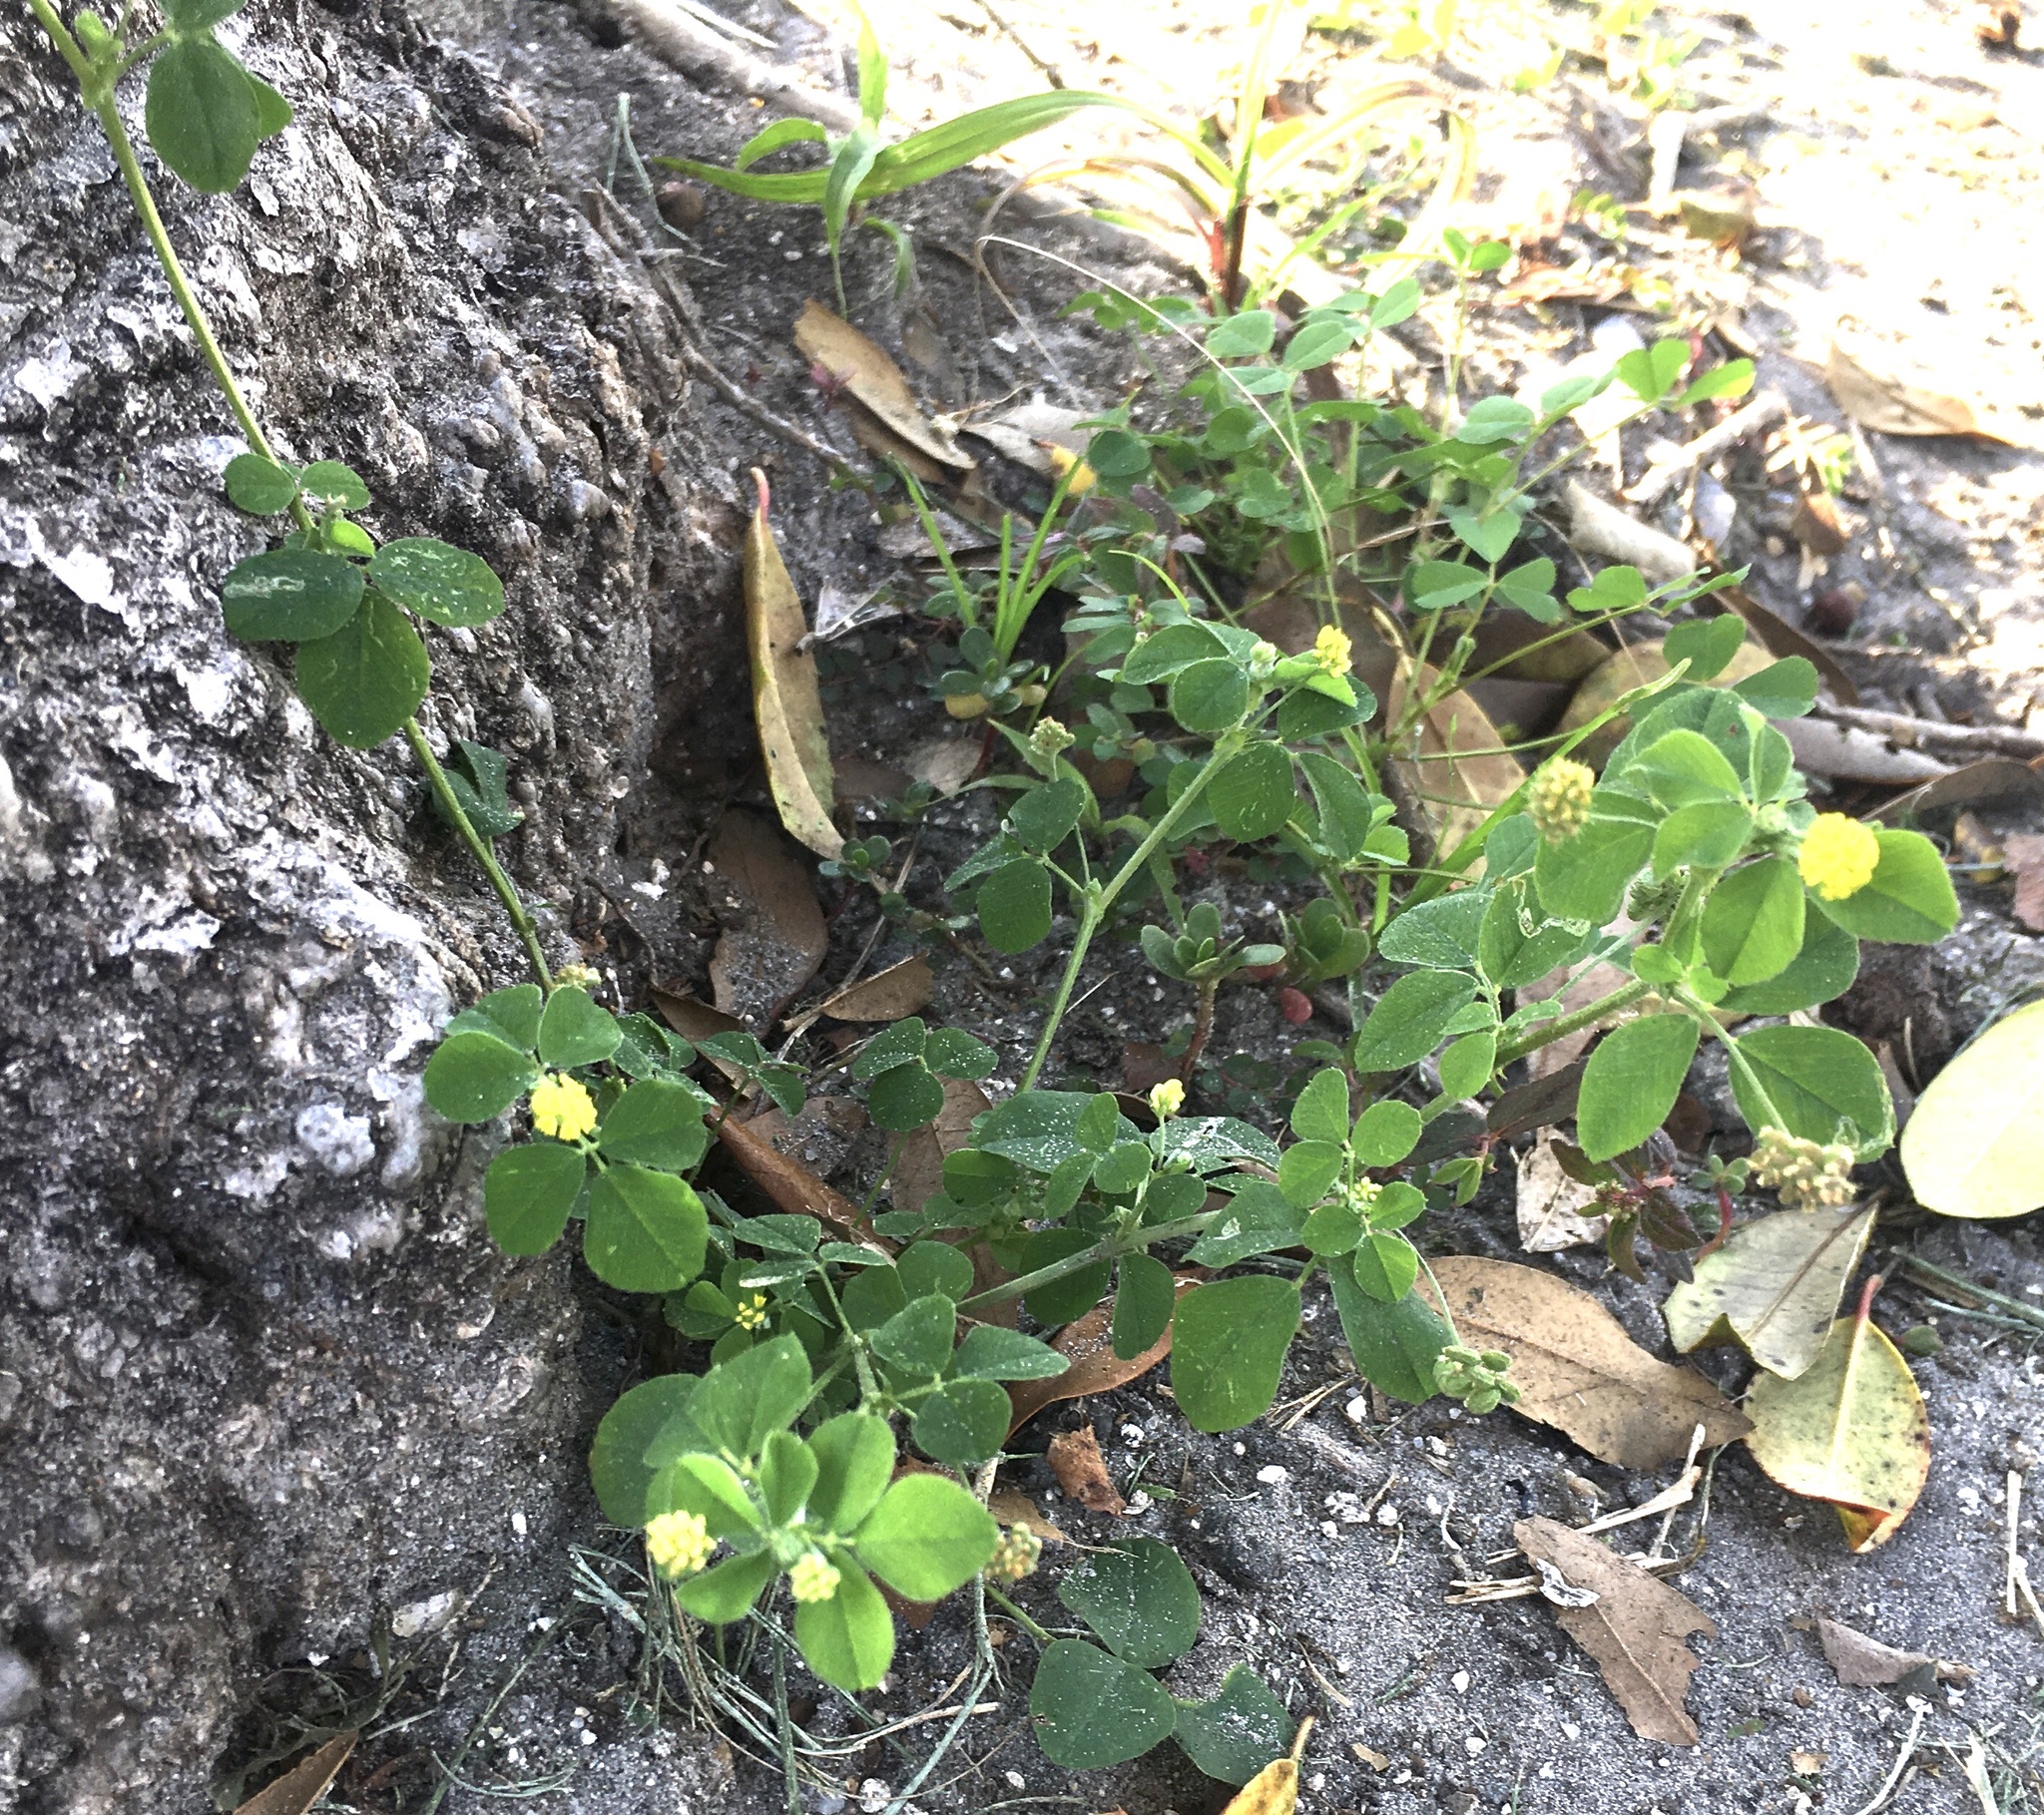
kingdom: Plantae
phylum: Tracheophyta
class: Magnoliopsida
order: Fabales
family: Fabaceae
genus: Medicago
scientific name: Medicago lupulina
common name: Black medick
